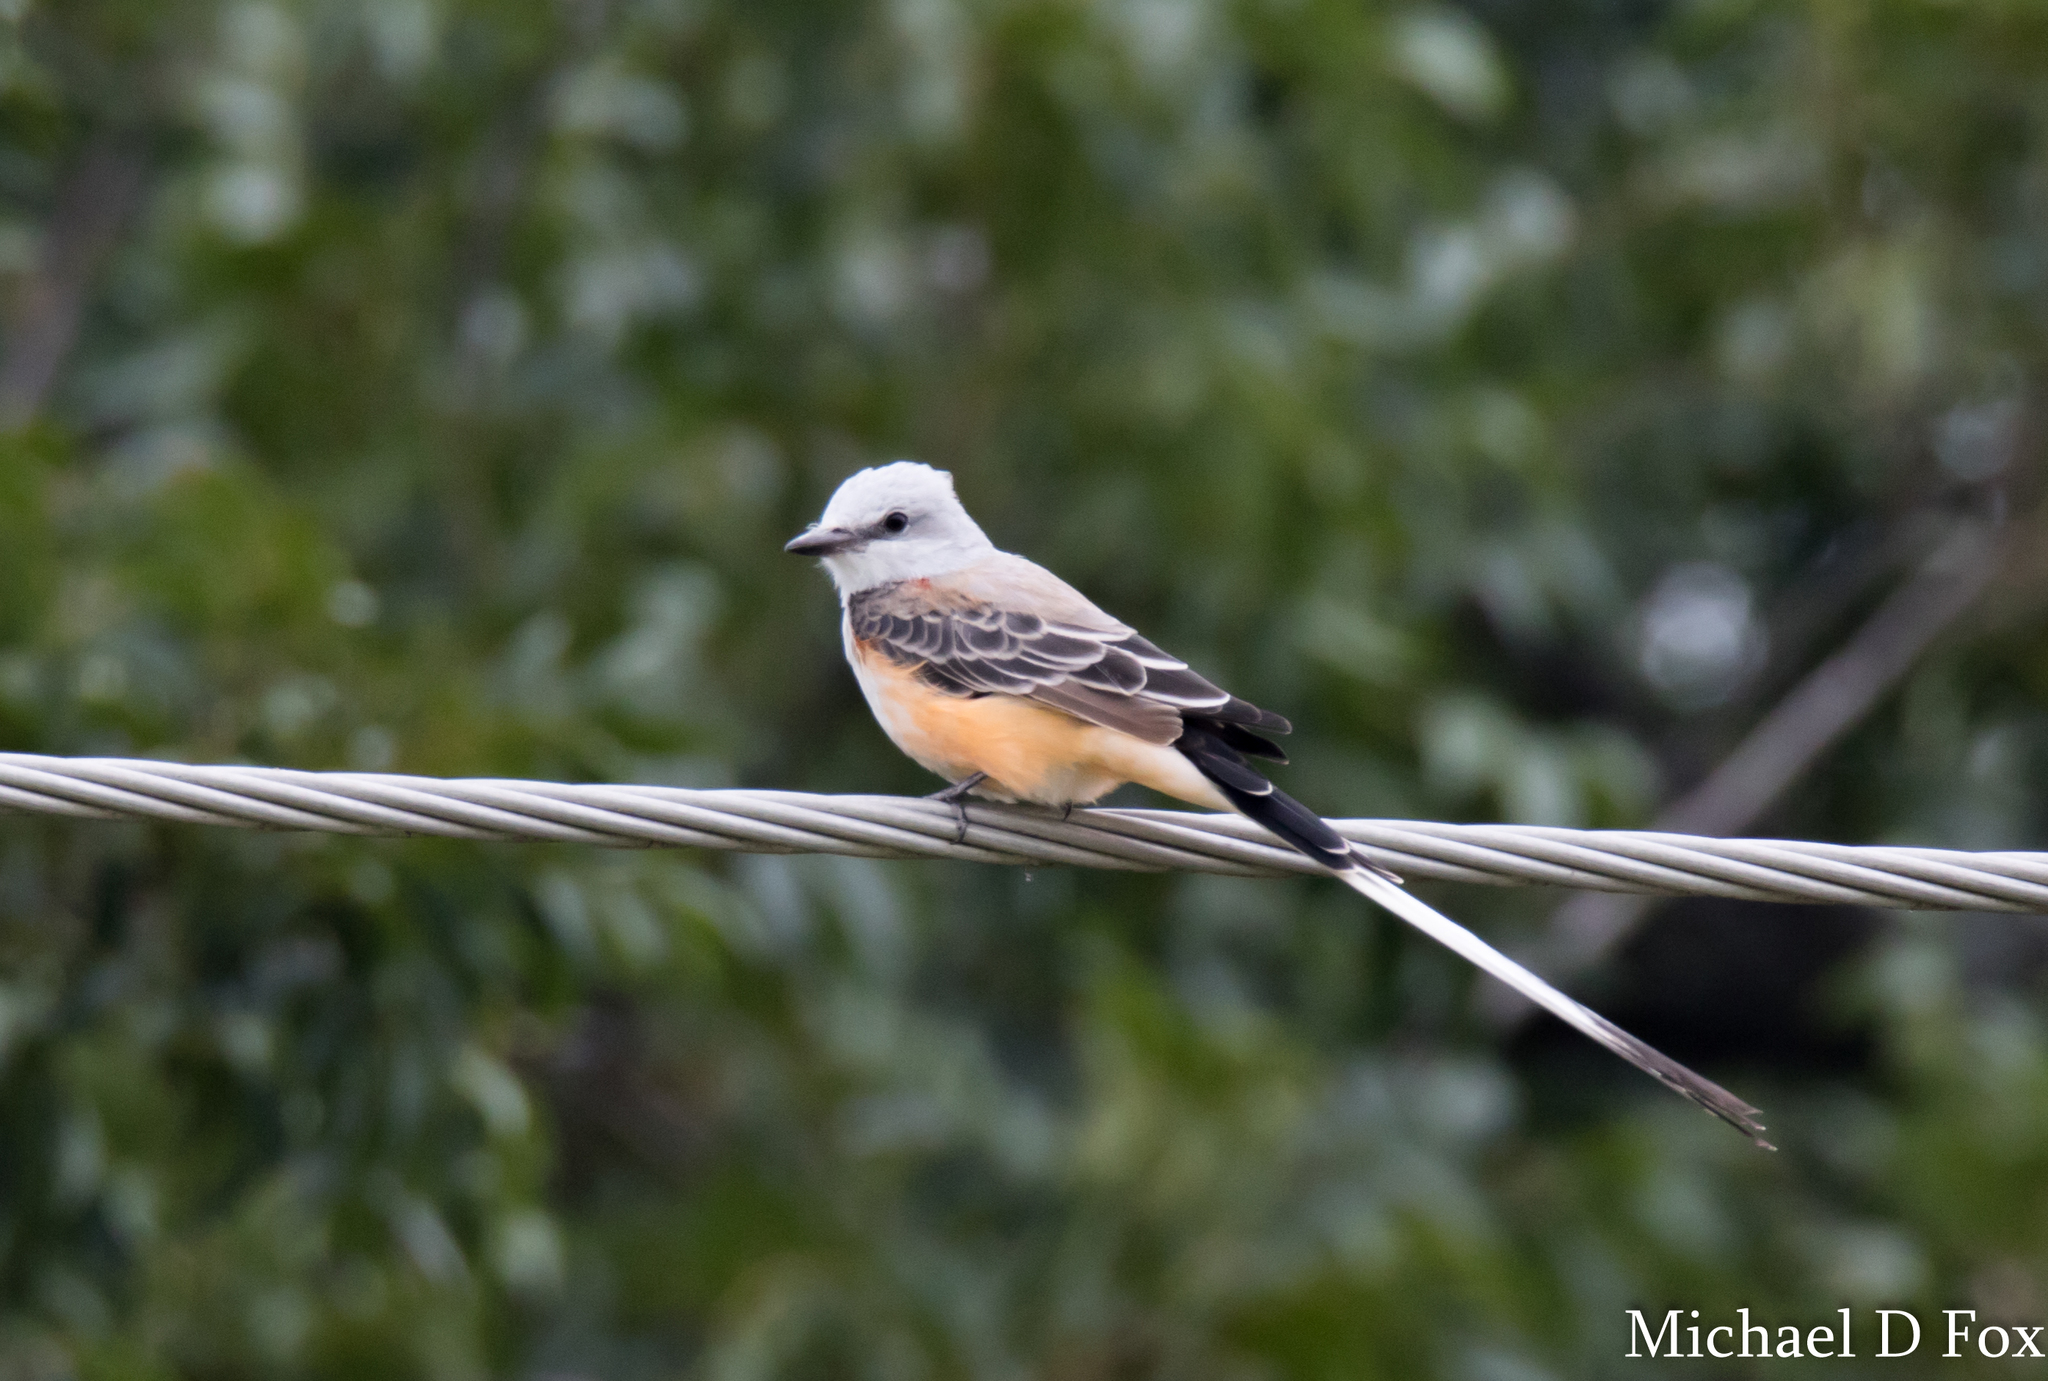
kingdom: Animalia
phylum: Chordata
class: Aves
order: Passeriformes
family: Tyrannidae
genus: Tyrannus
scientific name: Tyrannus forficatus
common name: Scissor-tailed flycatcher
